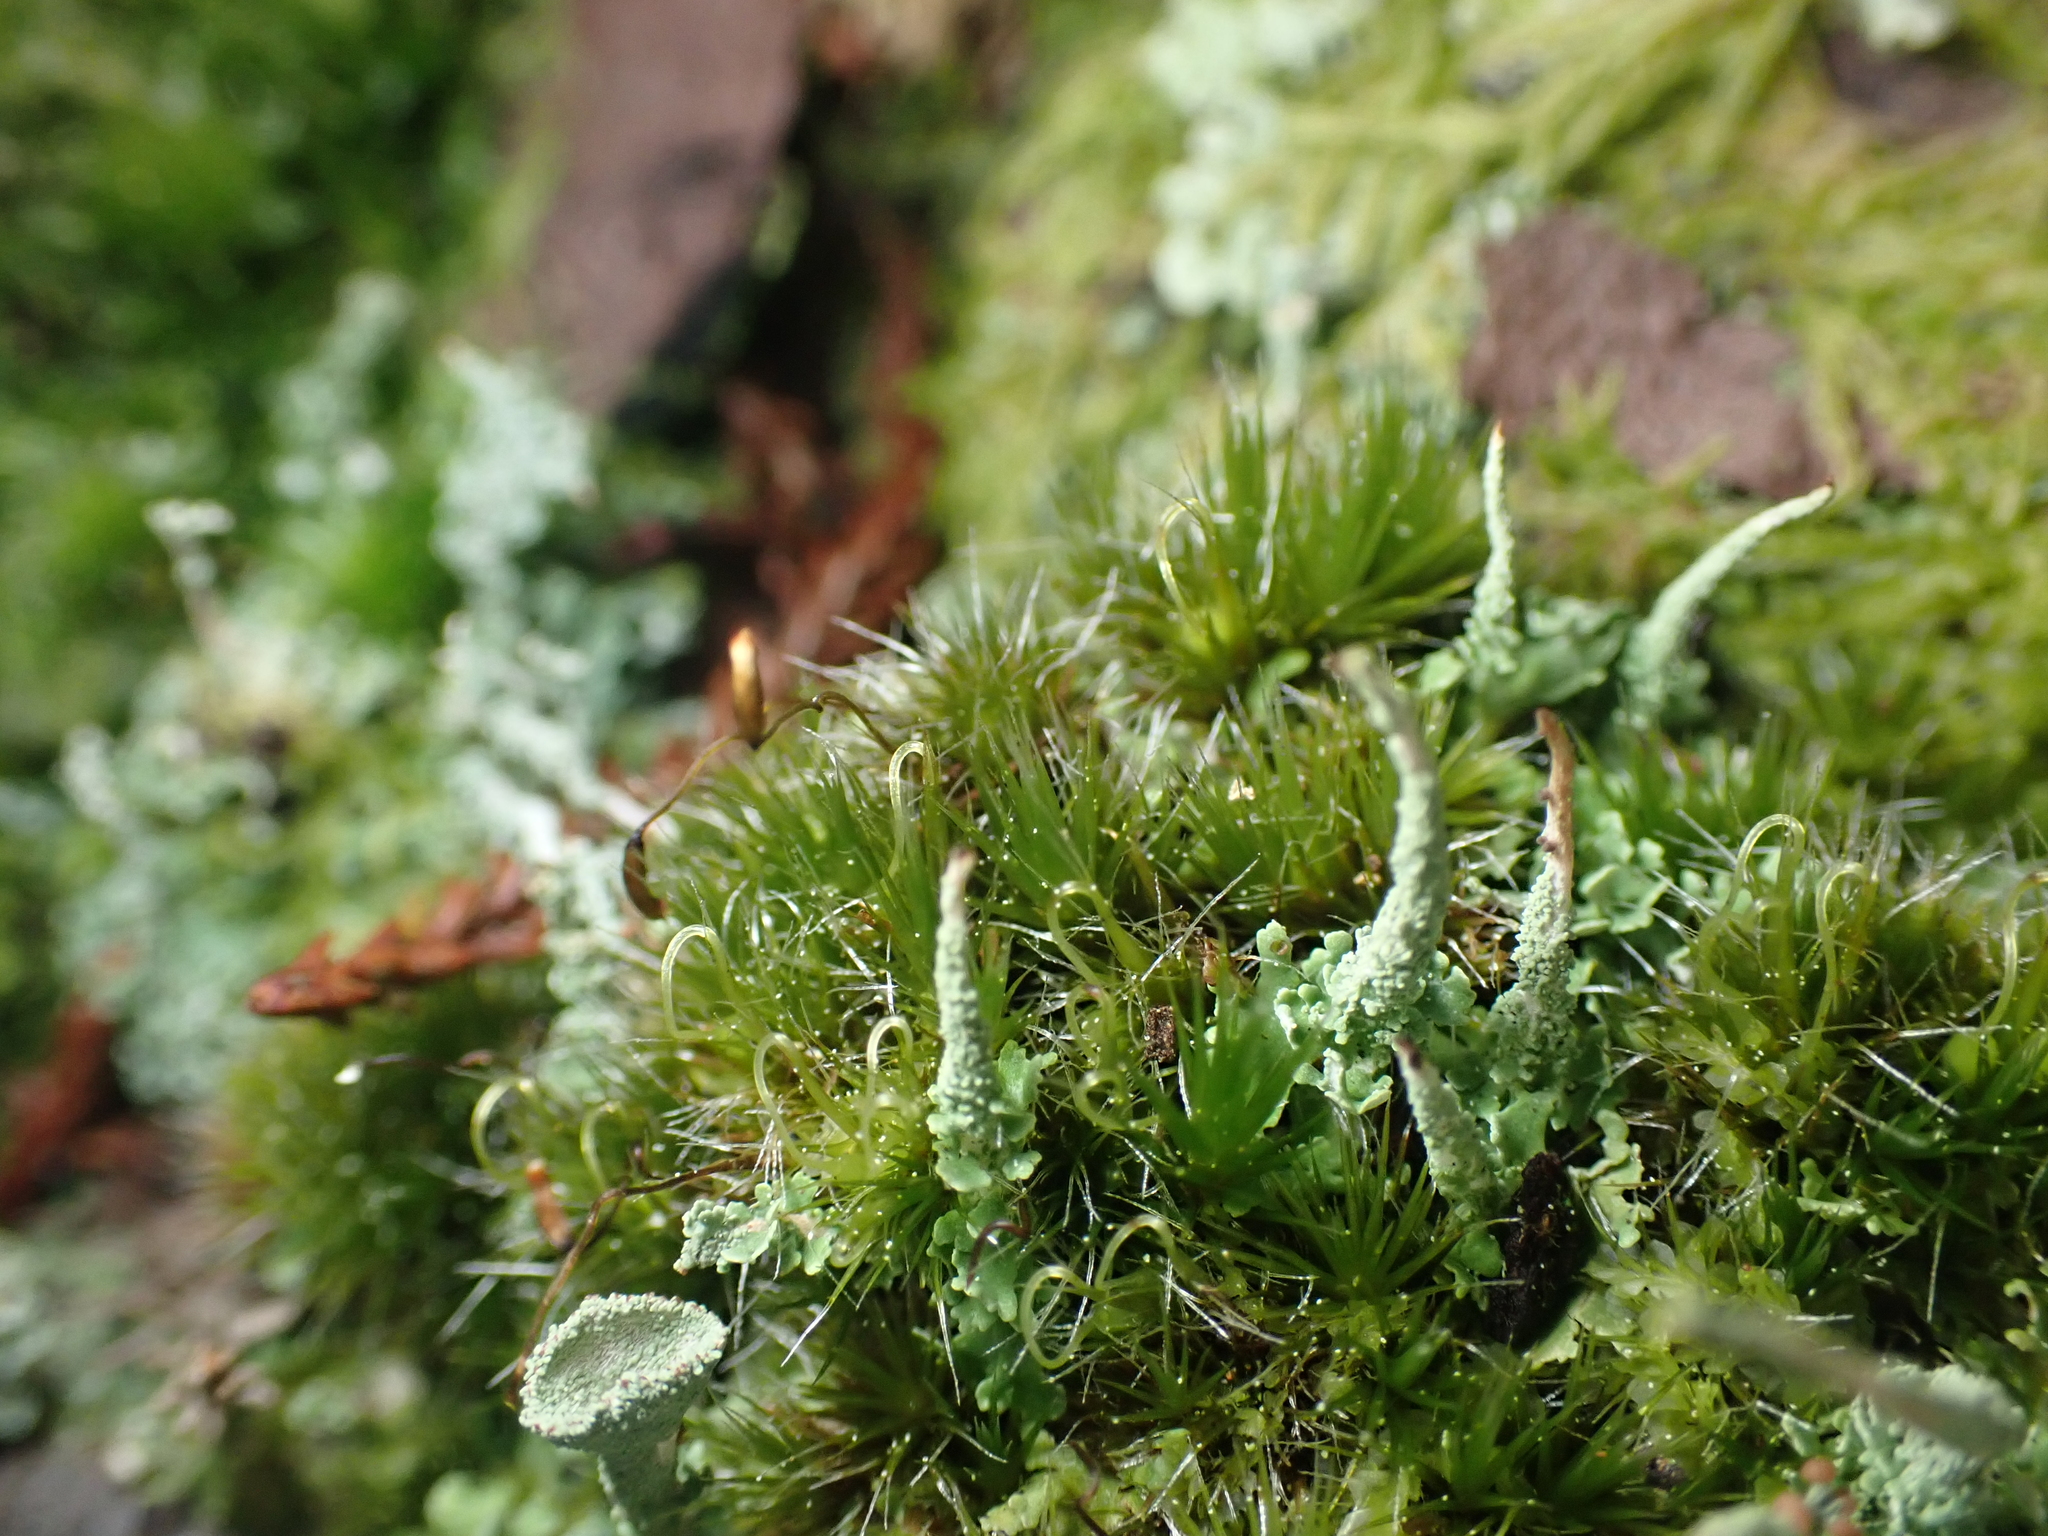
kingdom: Fungi
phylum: Ascomycota
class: Lecanoromycetes
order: Lecanorales
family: Cladoniaceae
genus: Cladonia
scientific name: Cladonia darwinii
